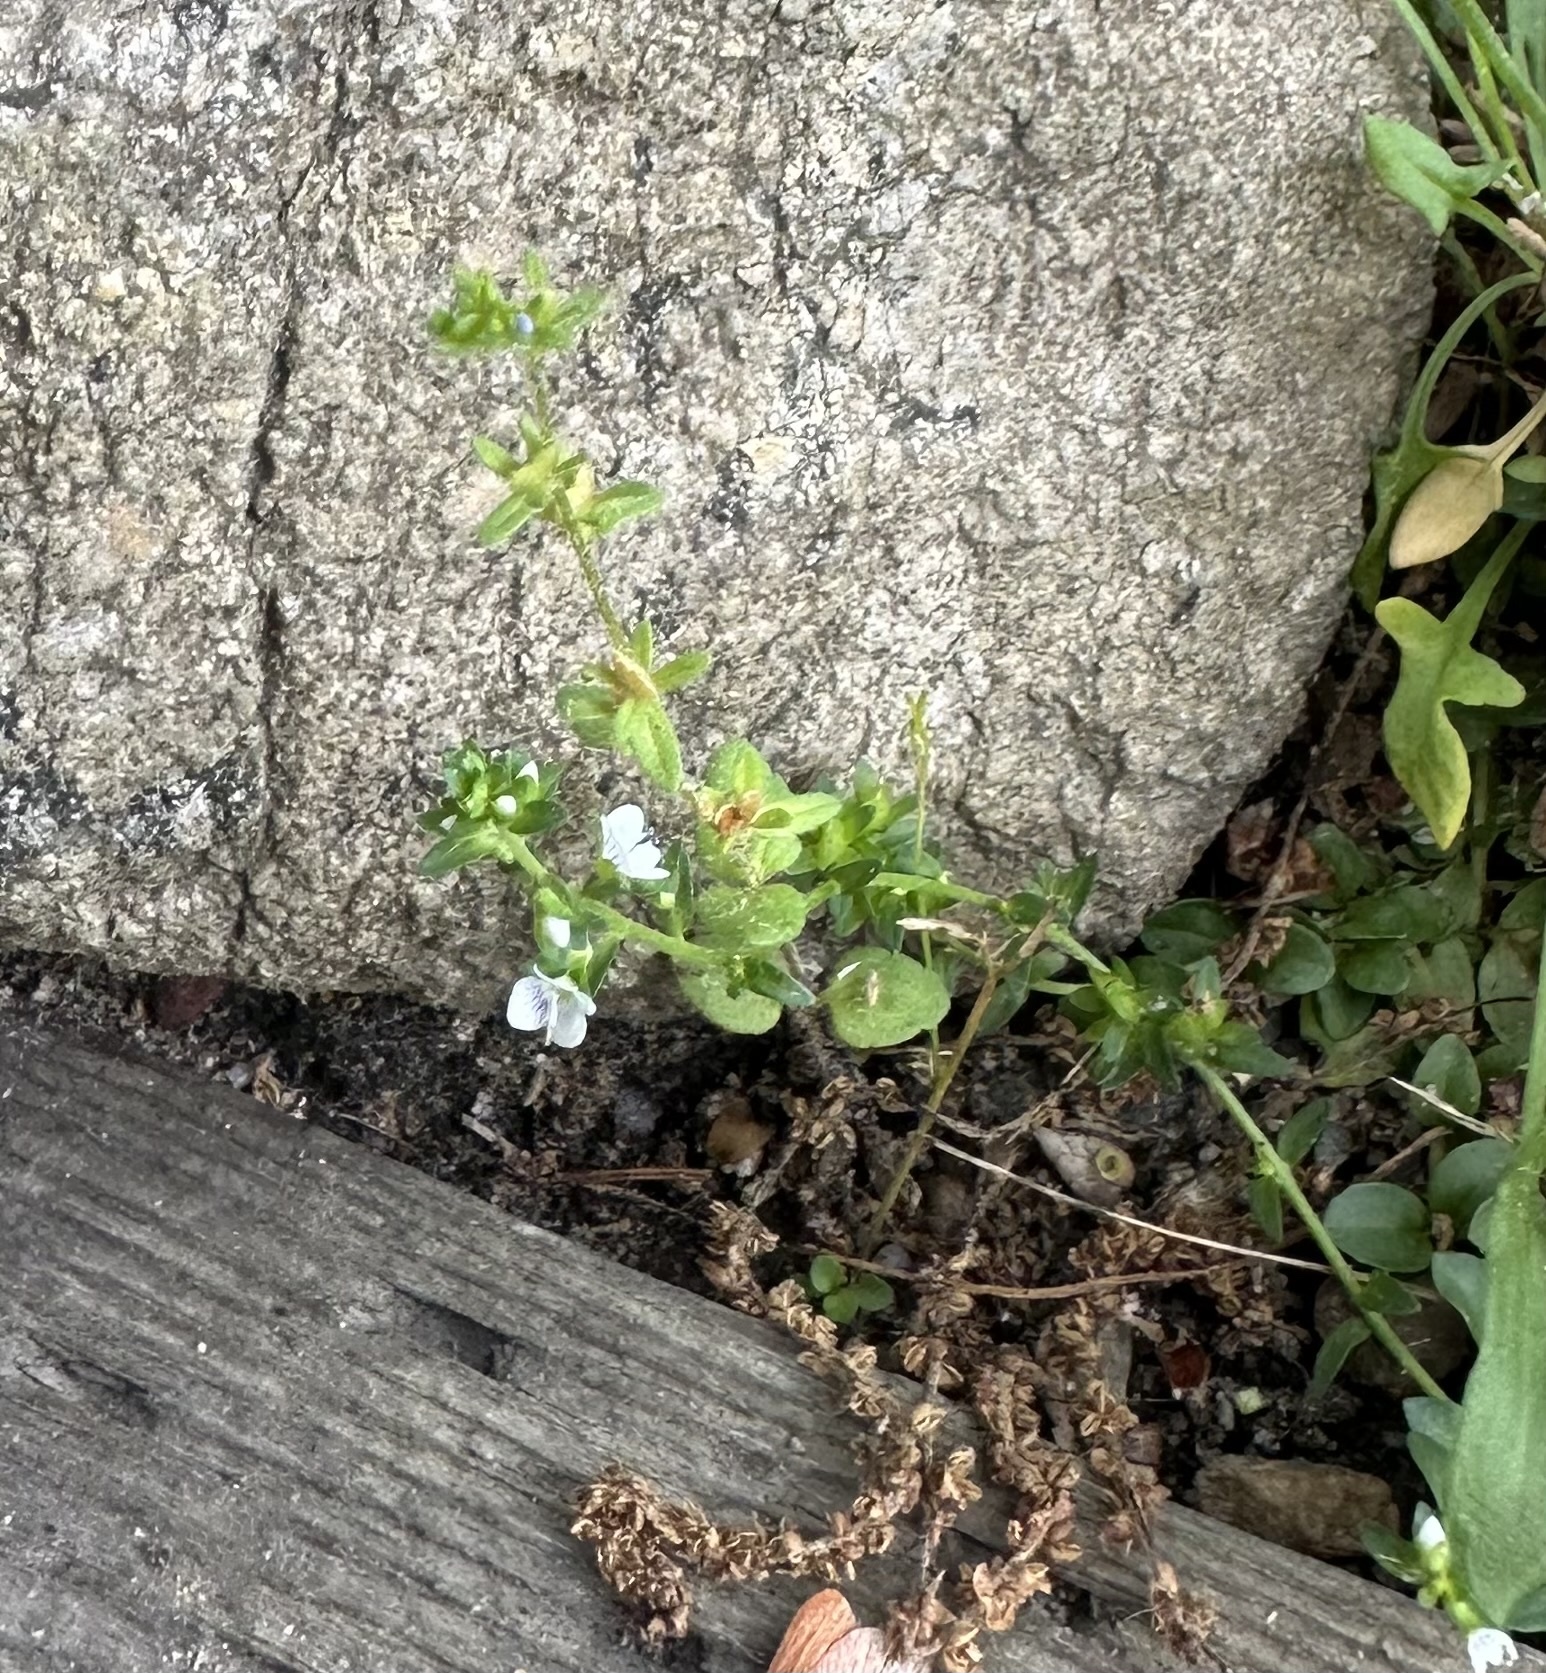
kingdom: Plantae
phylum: Tracheophyta
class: Magnoliopsida
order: Lamiales
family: Plantaginaceae
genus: Veronica
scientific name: Veronica serpyllifolia
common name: Thyme-leaved speedwell
